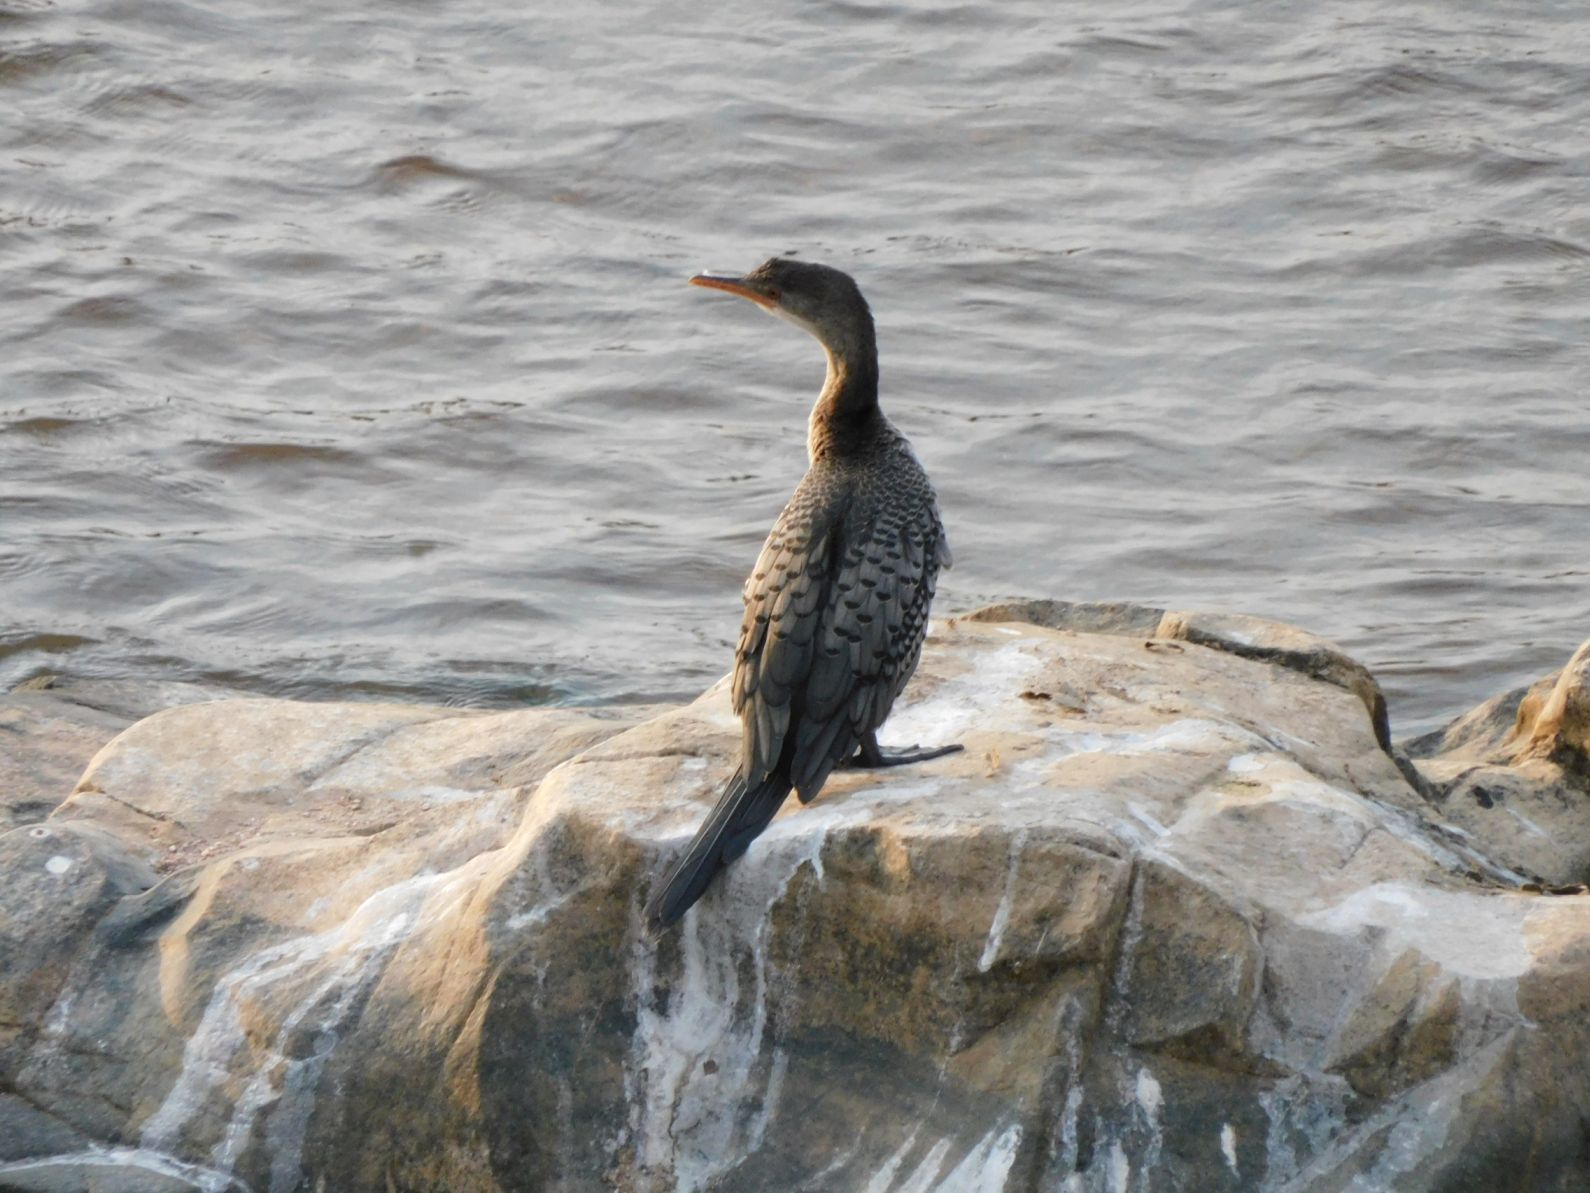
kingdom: Animalia
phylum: Chordata
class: Aves
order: Suliformes
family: Phalacrocoracidae
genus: Microcarbo
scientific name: Microcarbo africanus
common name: Long-tailed cormorant
